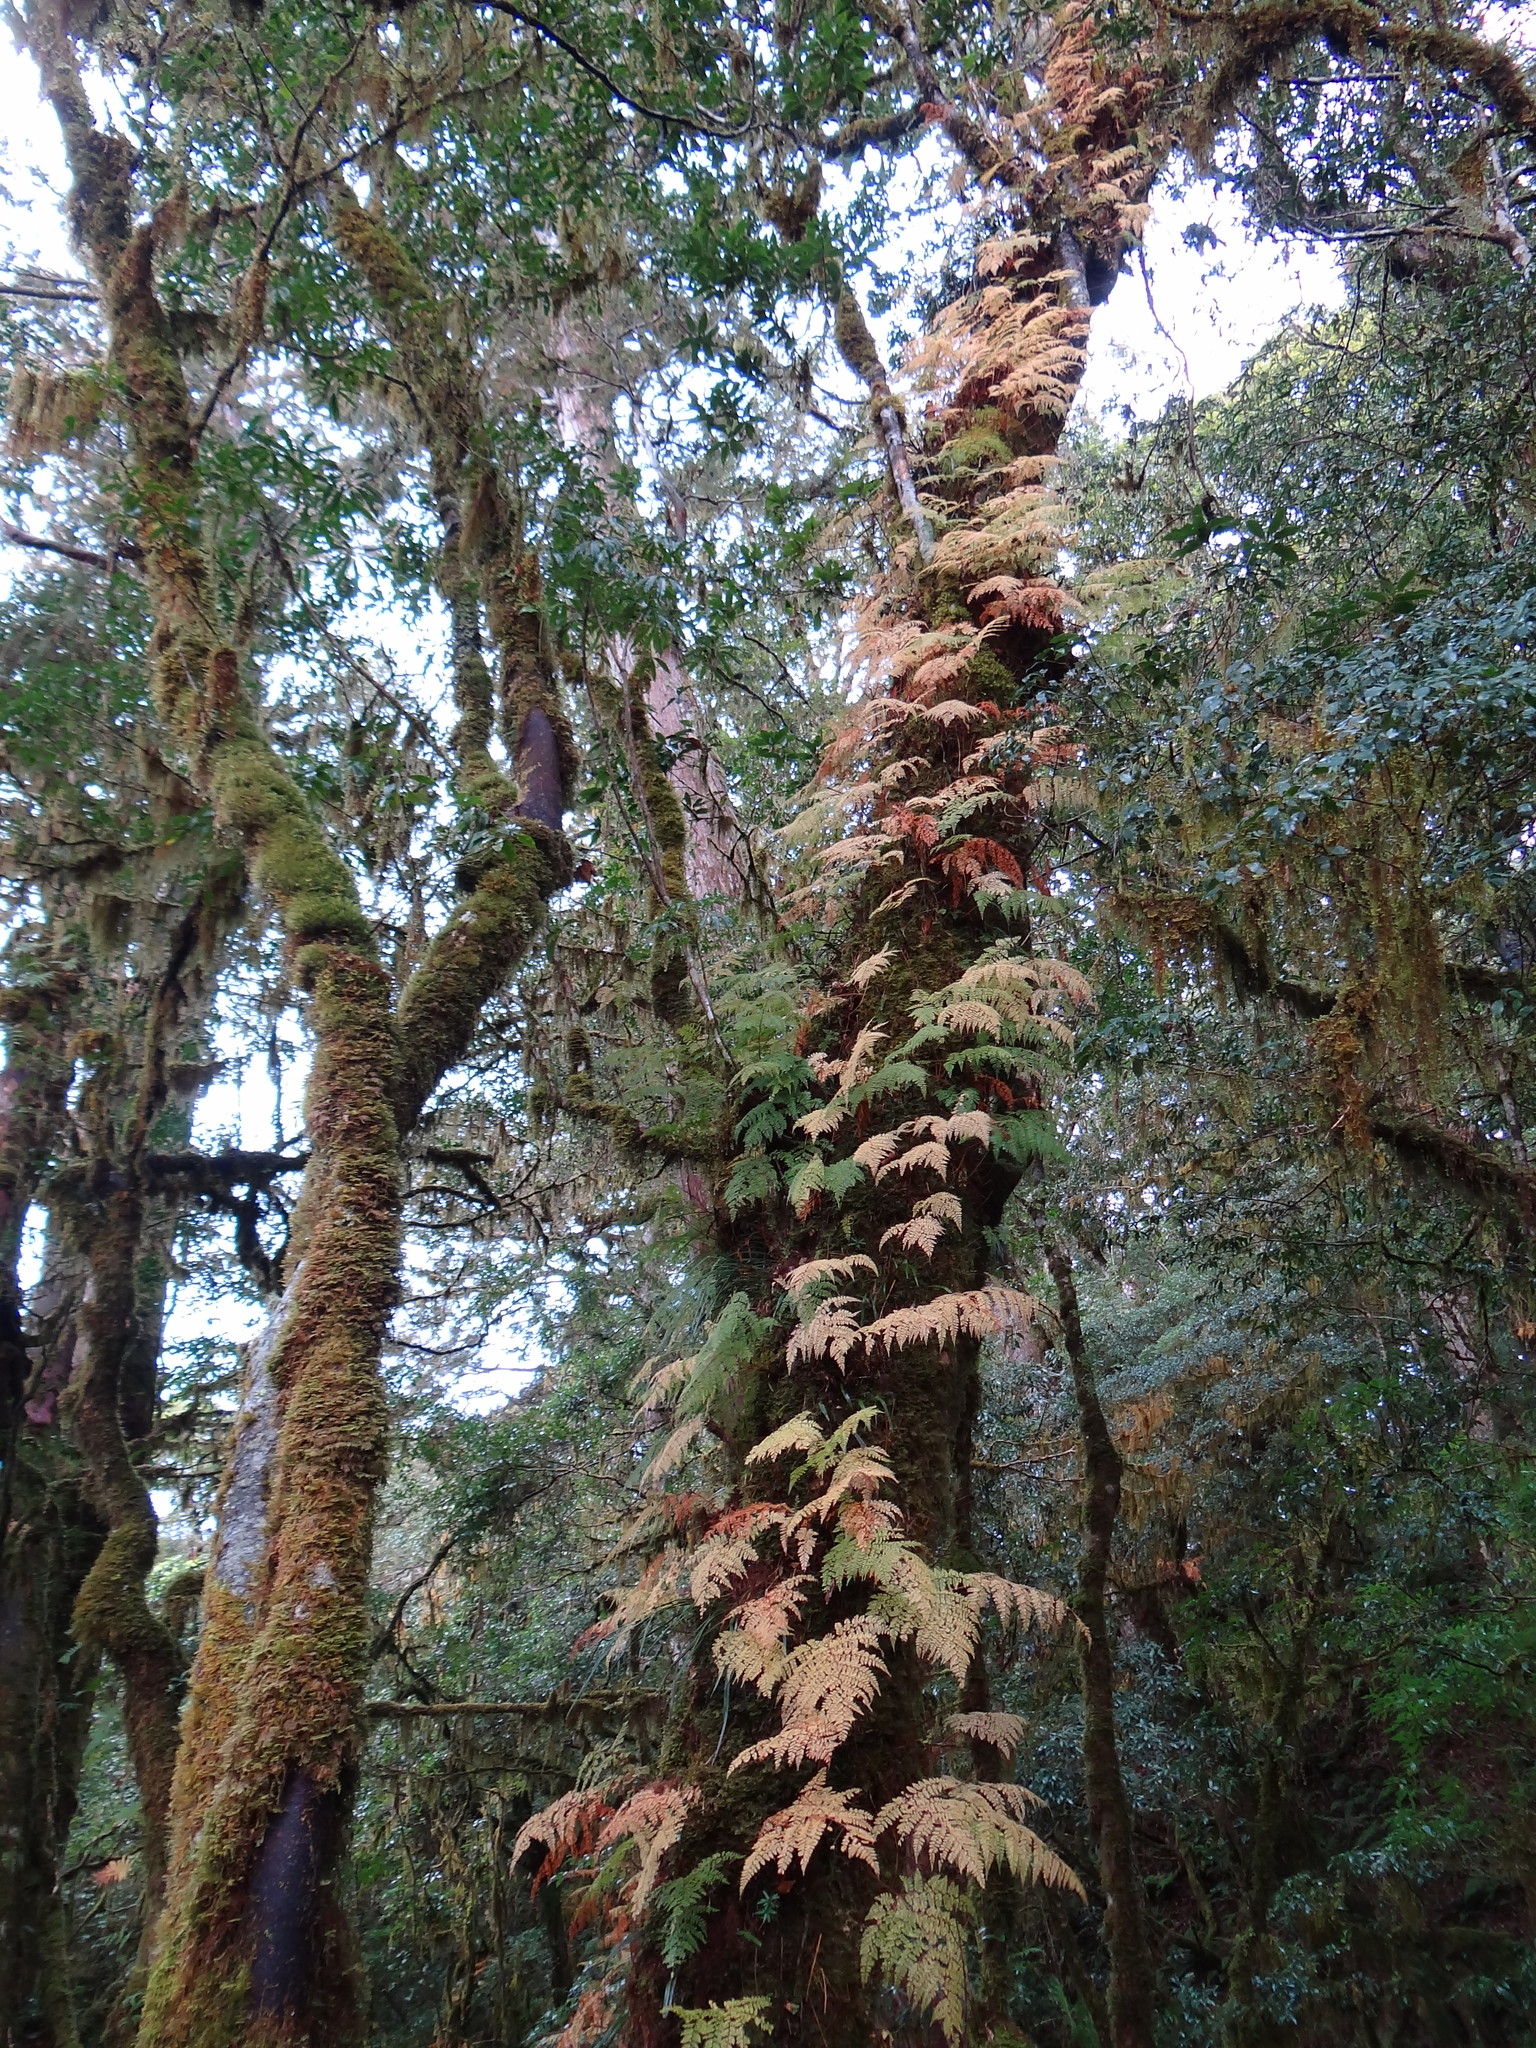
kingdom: Plantae
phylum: Tracheophyta
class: Polypodiopsida
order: Polypodiales
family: Davalliaceae
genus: Davallia
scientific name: Davallia perdurans
